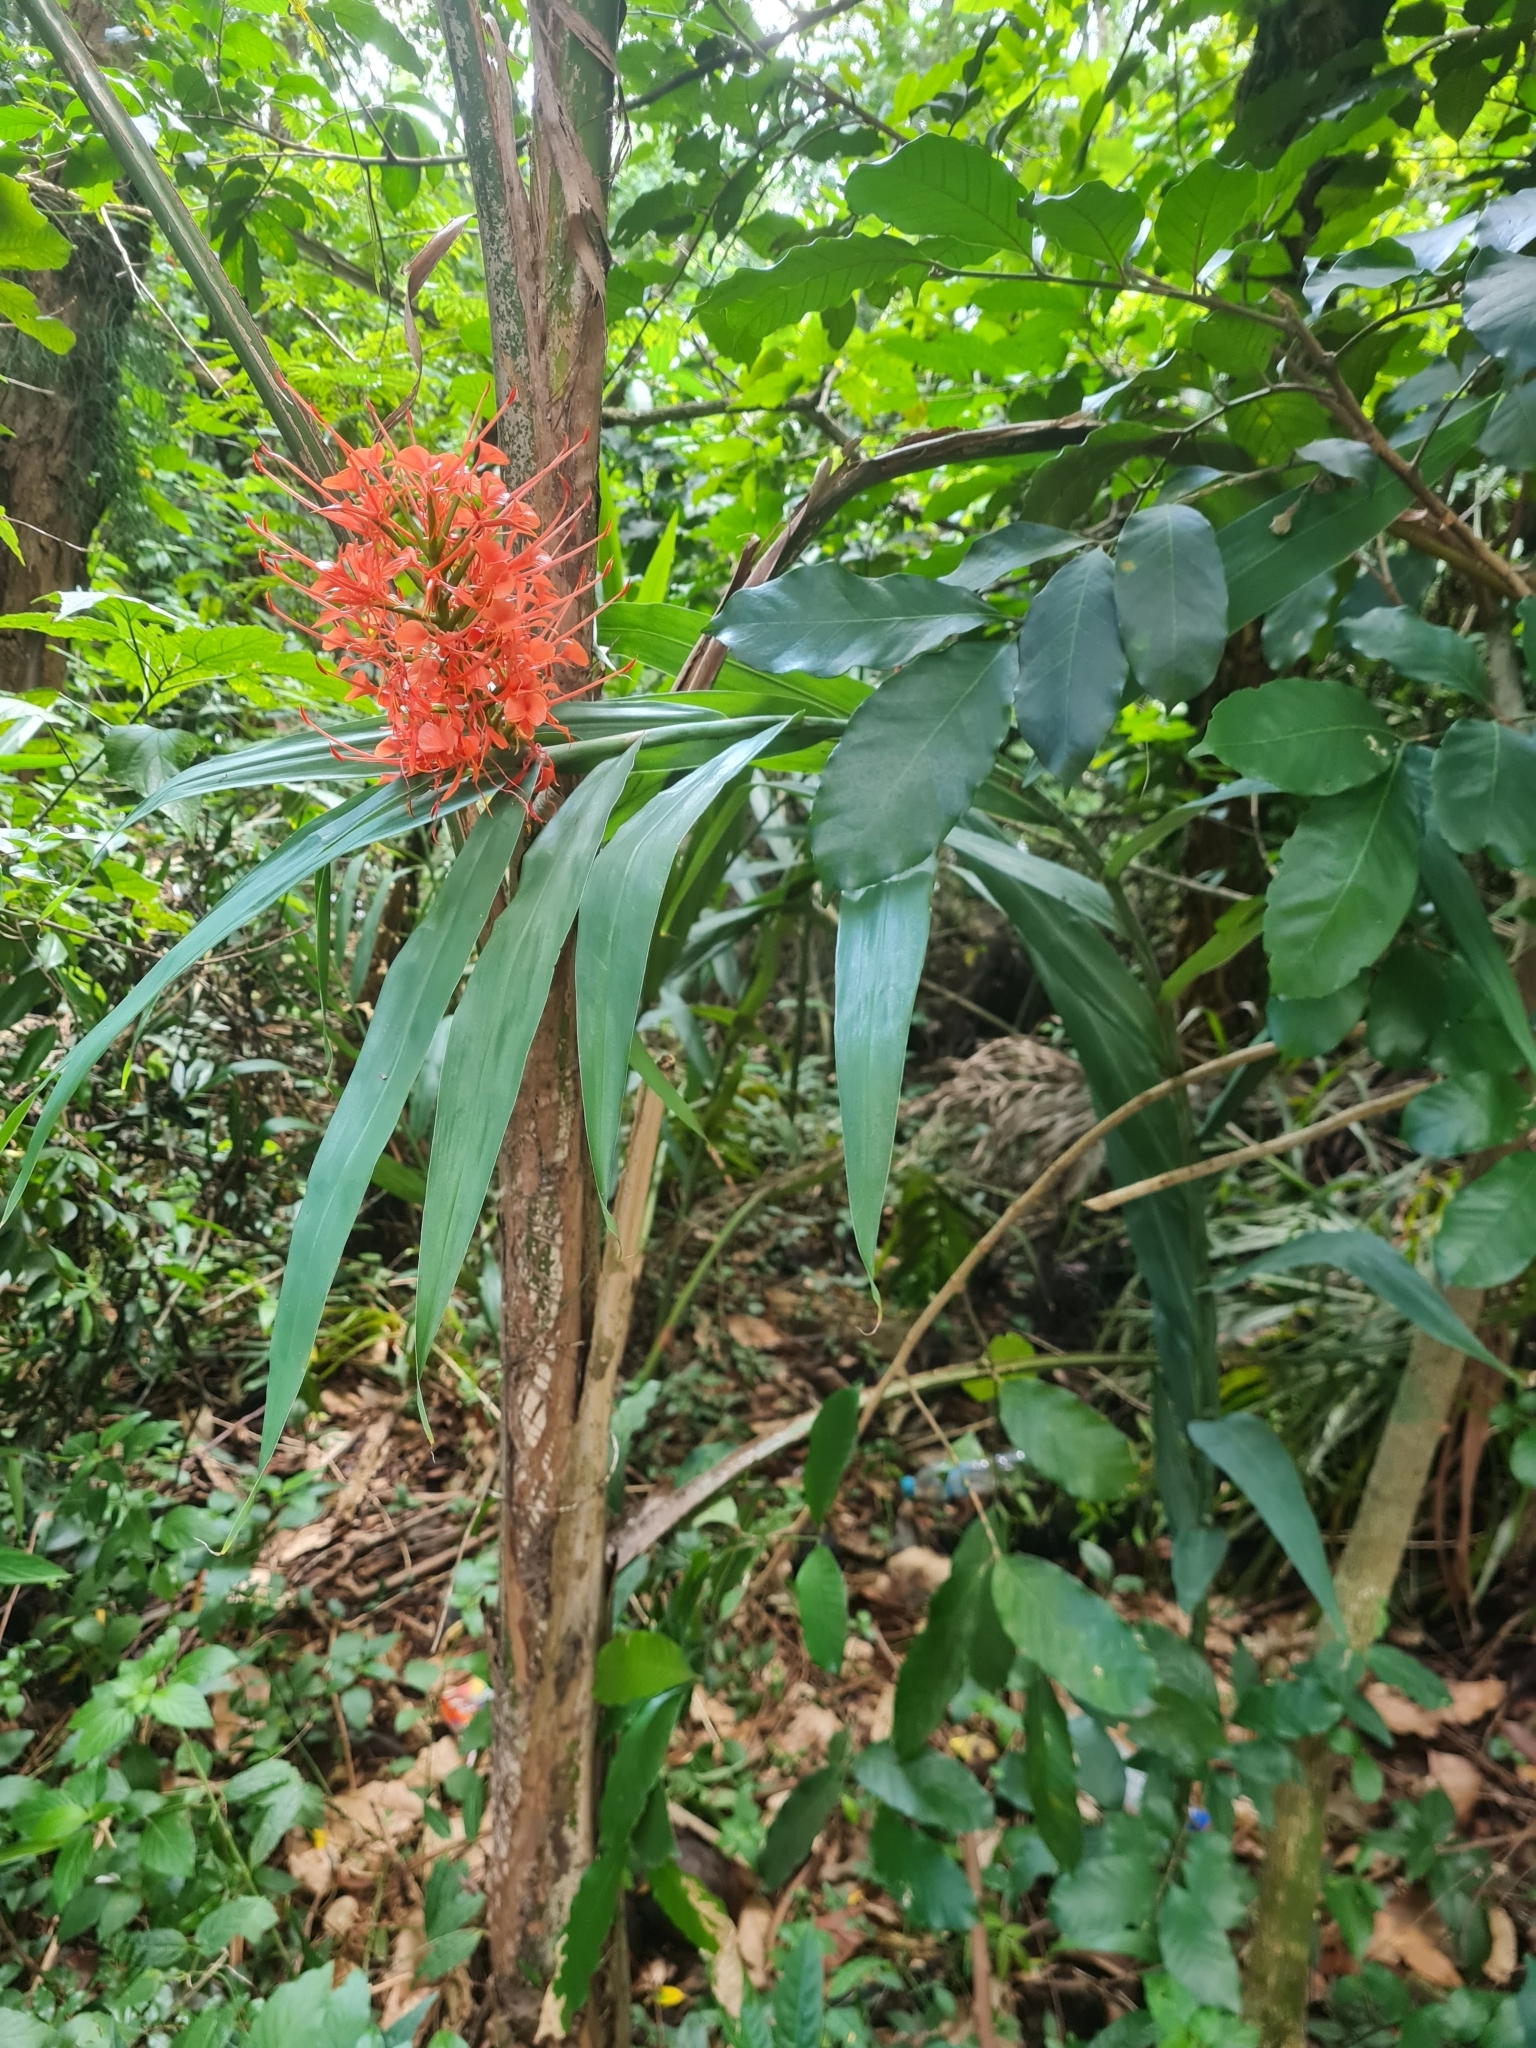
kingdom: Plantae
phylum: Tracheophyta
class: Liliopsida
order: Zingiberales
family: Zingiberaceae
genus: Hedychium
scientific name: Hedychium coccineum
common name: Red ginger-lily
